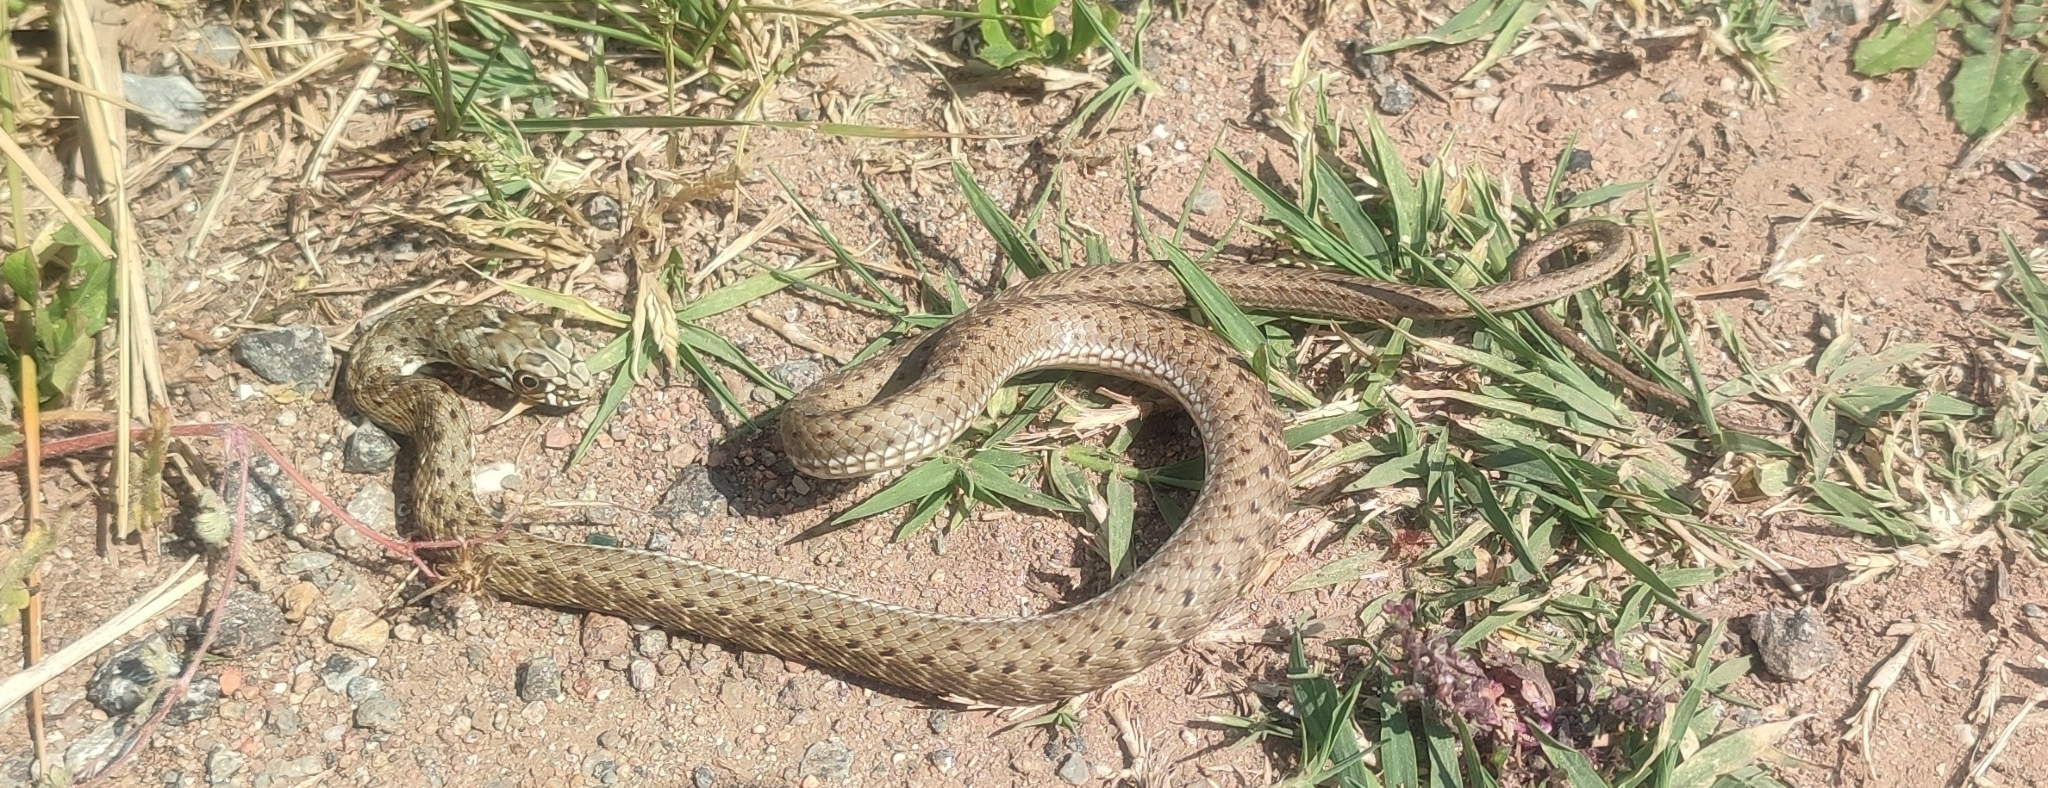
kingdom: Animalia
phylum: Chordata
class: Squamata
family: Psammophiidae
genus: Malpolon
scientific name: Malpolon monspessulanus
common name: Montpellier snake
